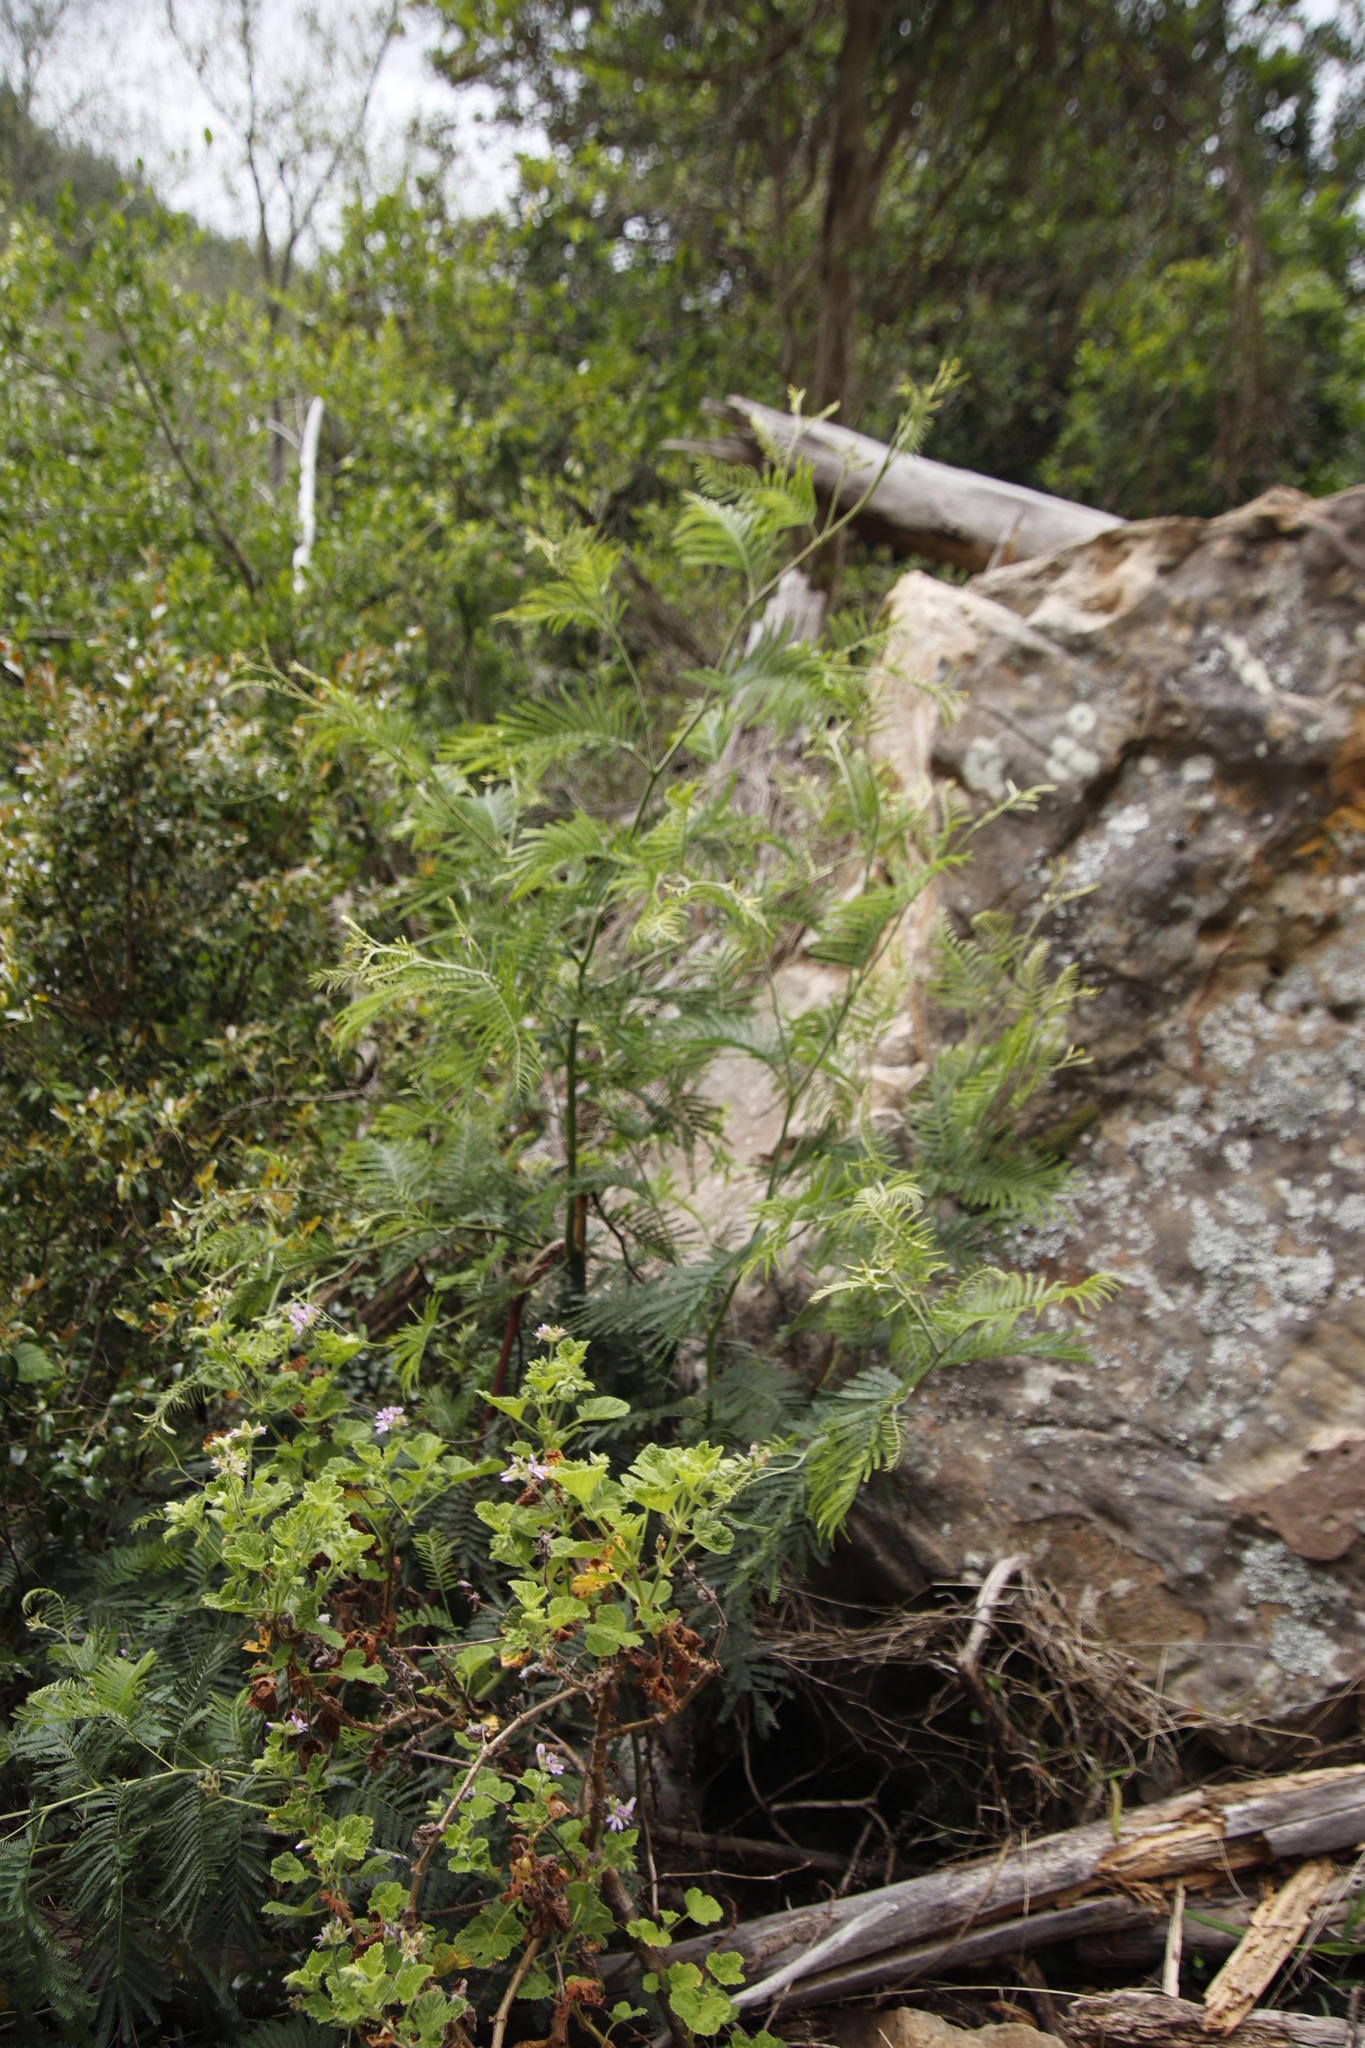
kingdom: Plantae
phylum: Tracheophyta
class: Magnoliopsida
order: Fabales
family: Fabaceae
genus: Acacia
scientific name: Acacia mearnsii
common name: Black wattle
